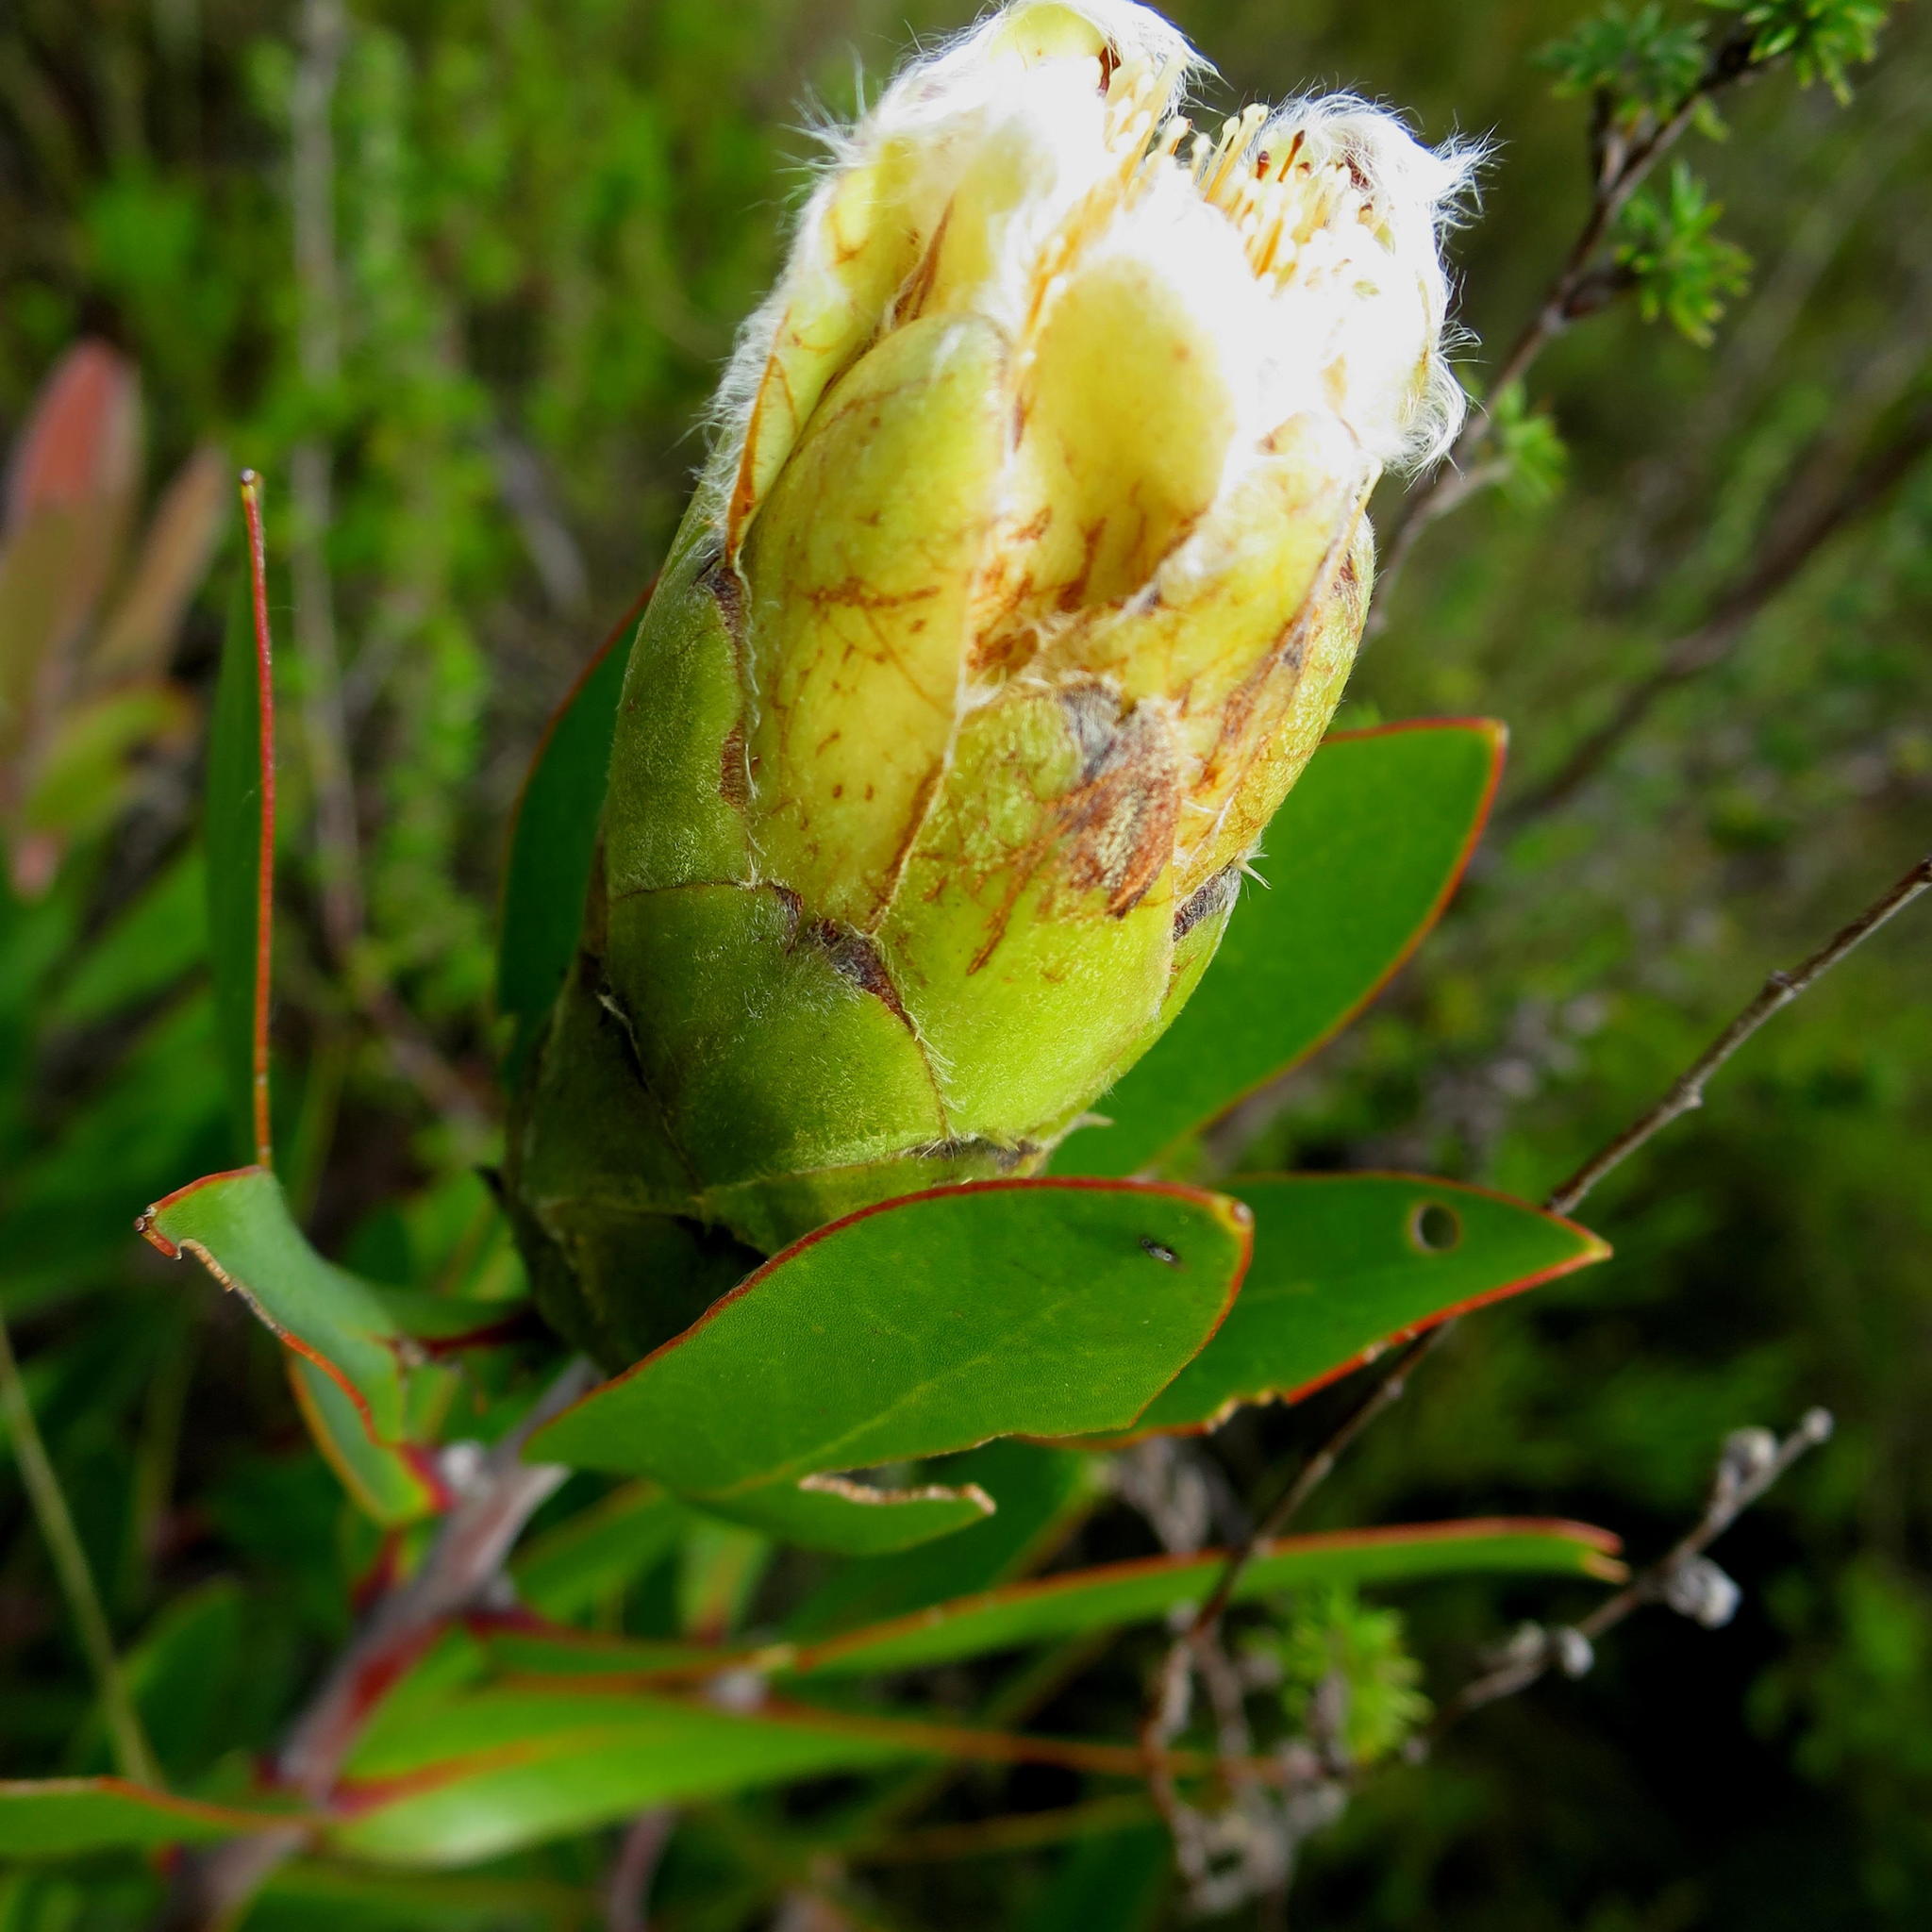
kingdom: Plantae
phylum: Tracheophyta
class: Magnoliopsida
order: Proteales
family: Proteaceae
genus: Protea
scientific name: Protea mundii
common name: Forest sugarbush
